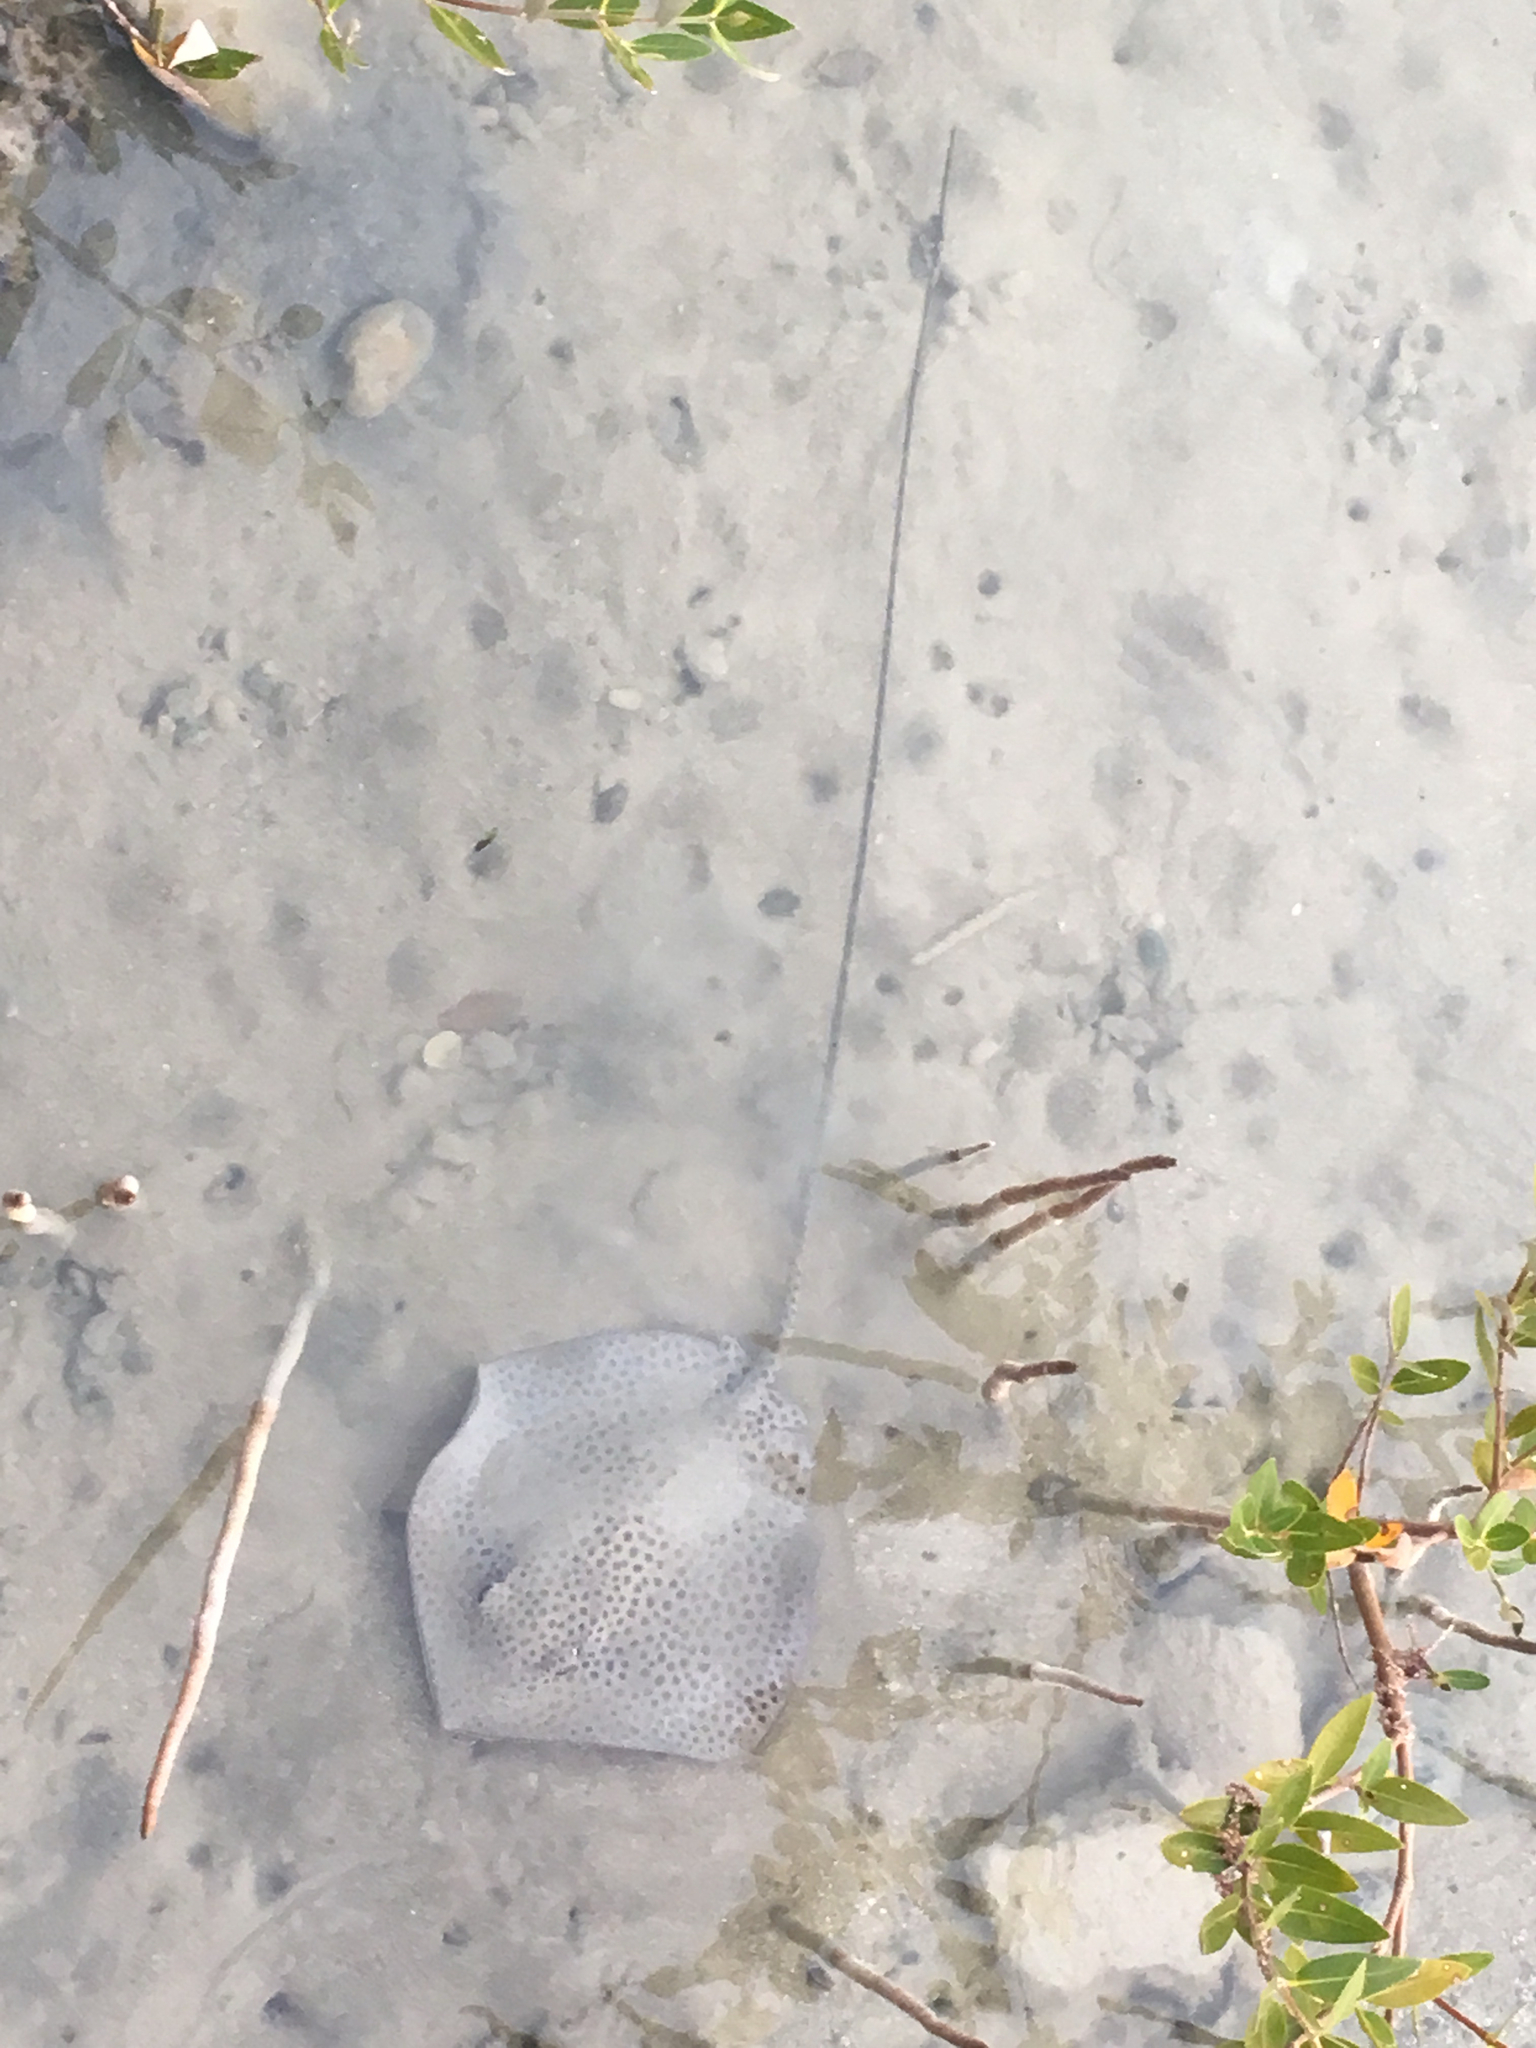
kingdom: Animalia
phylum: Chordata
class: Elasmobranchii
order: Myliobatiformes
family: Dasyatidae
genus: Himantura
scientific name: Himantura uarnak
